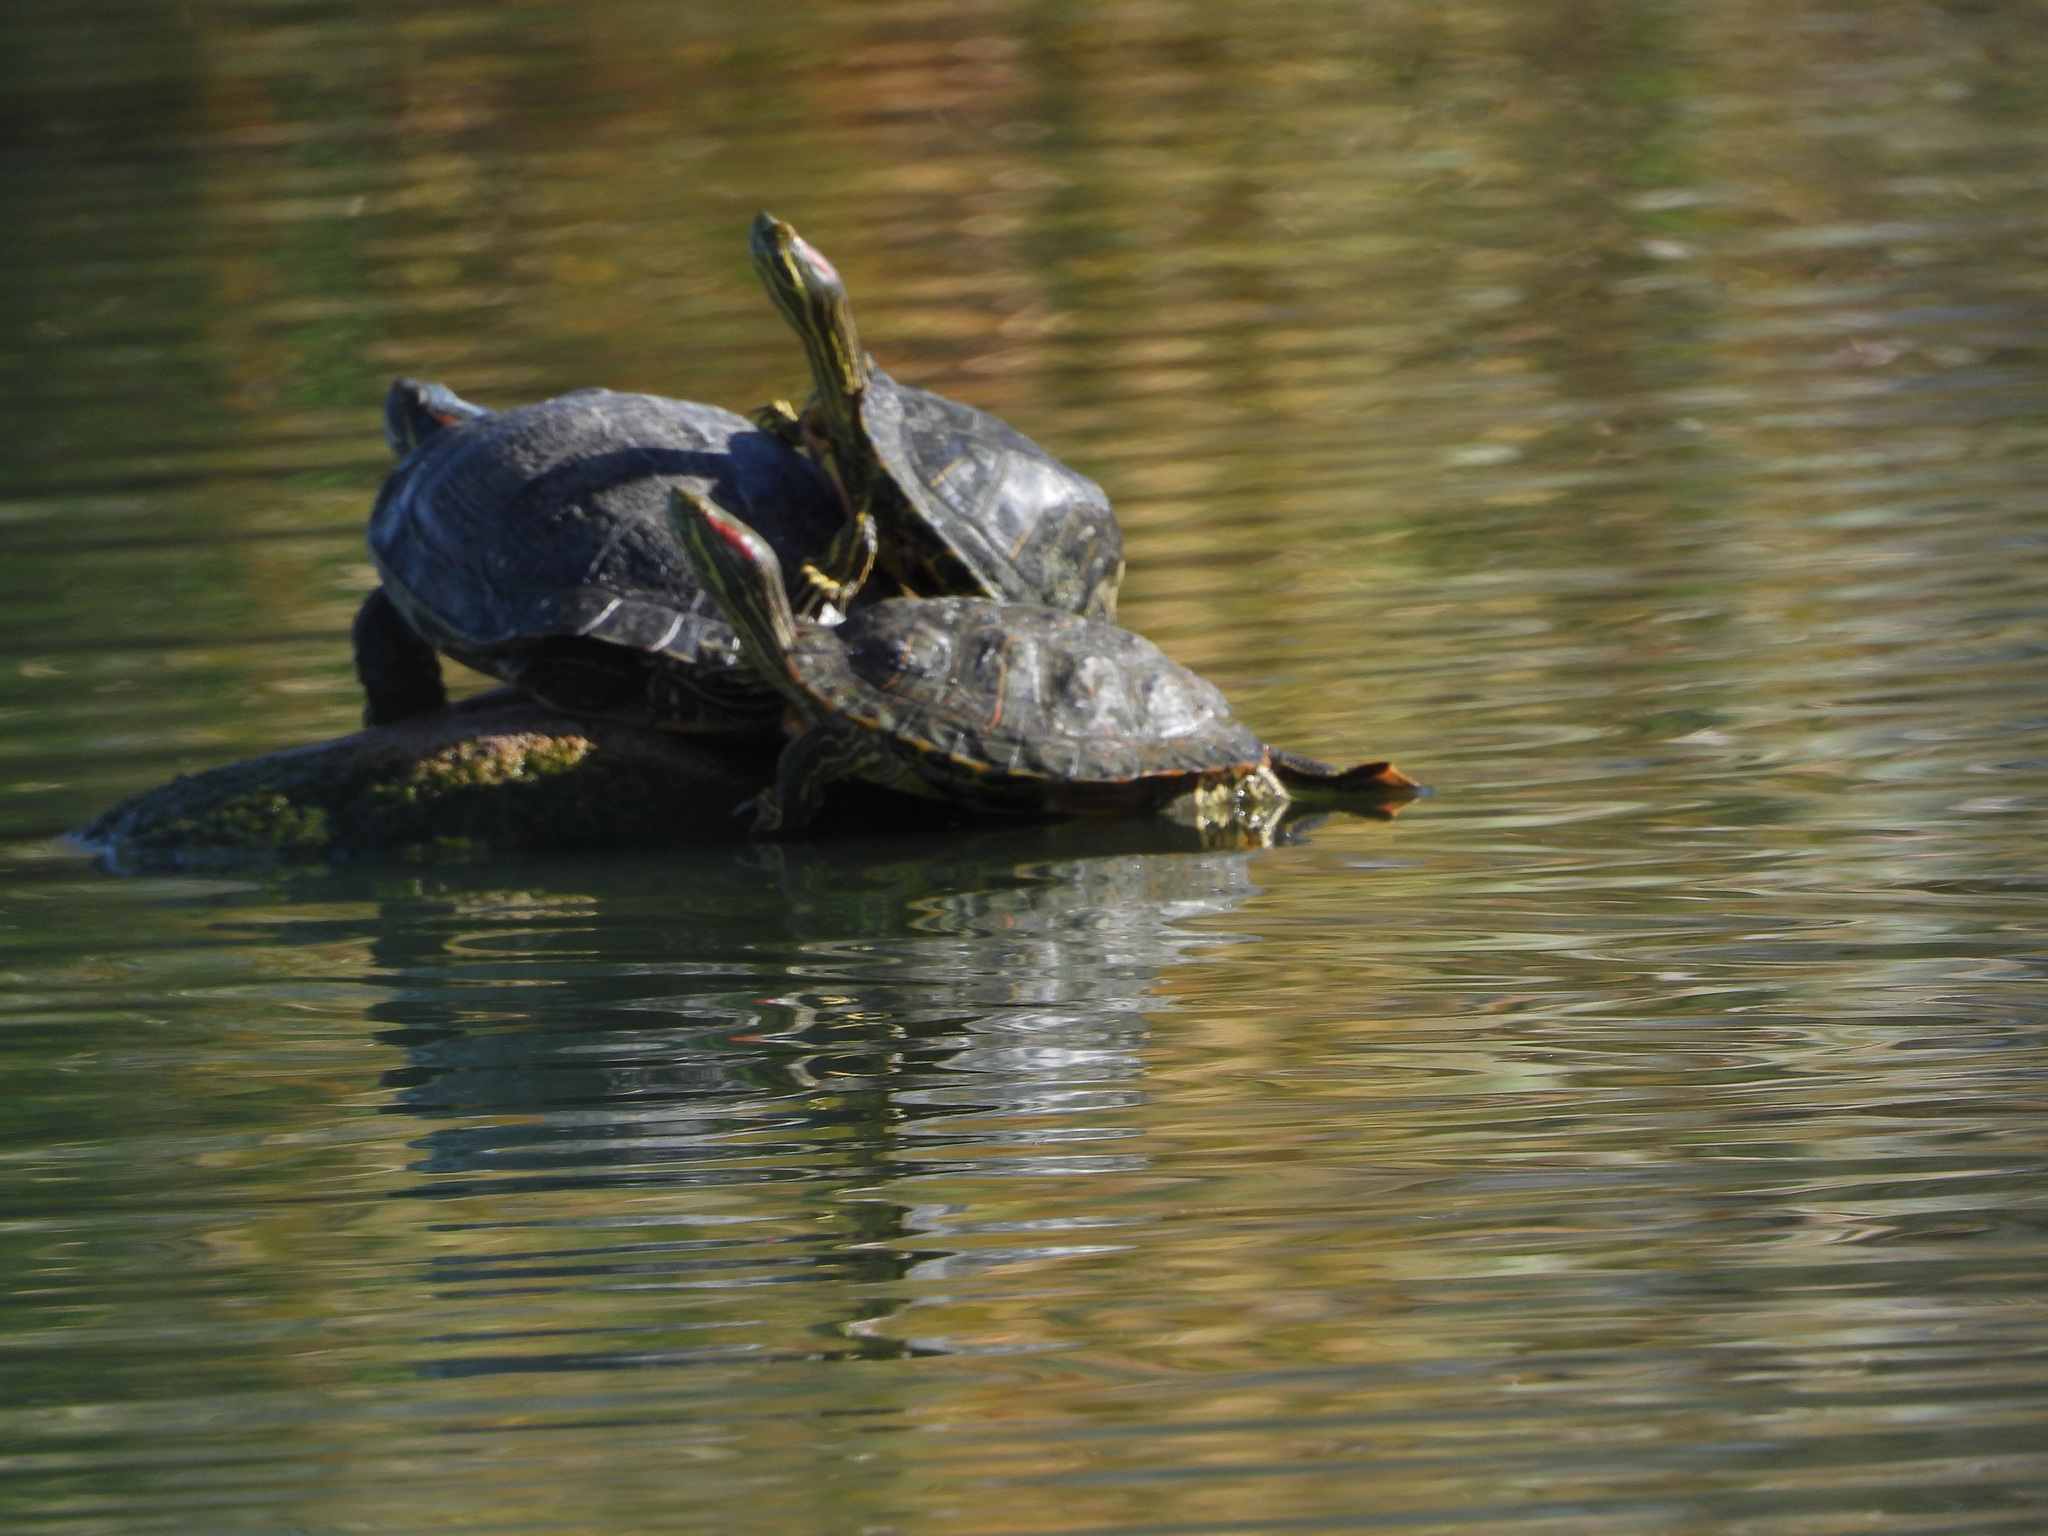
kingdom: Animalia
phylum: Chordata
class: Testudines
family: Emydidae
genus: Trachemys
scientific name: Trachemys scripta
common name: Slider
